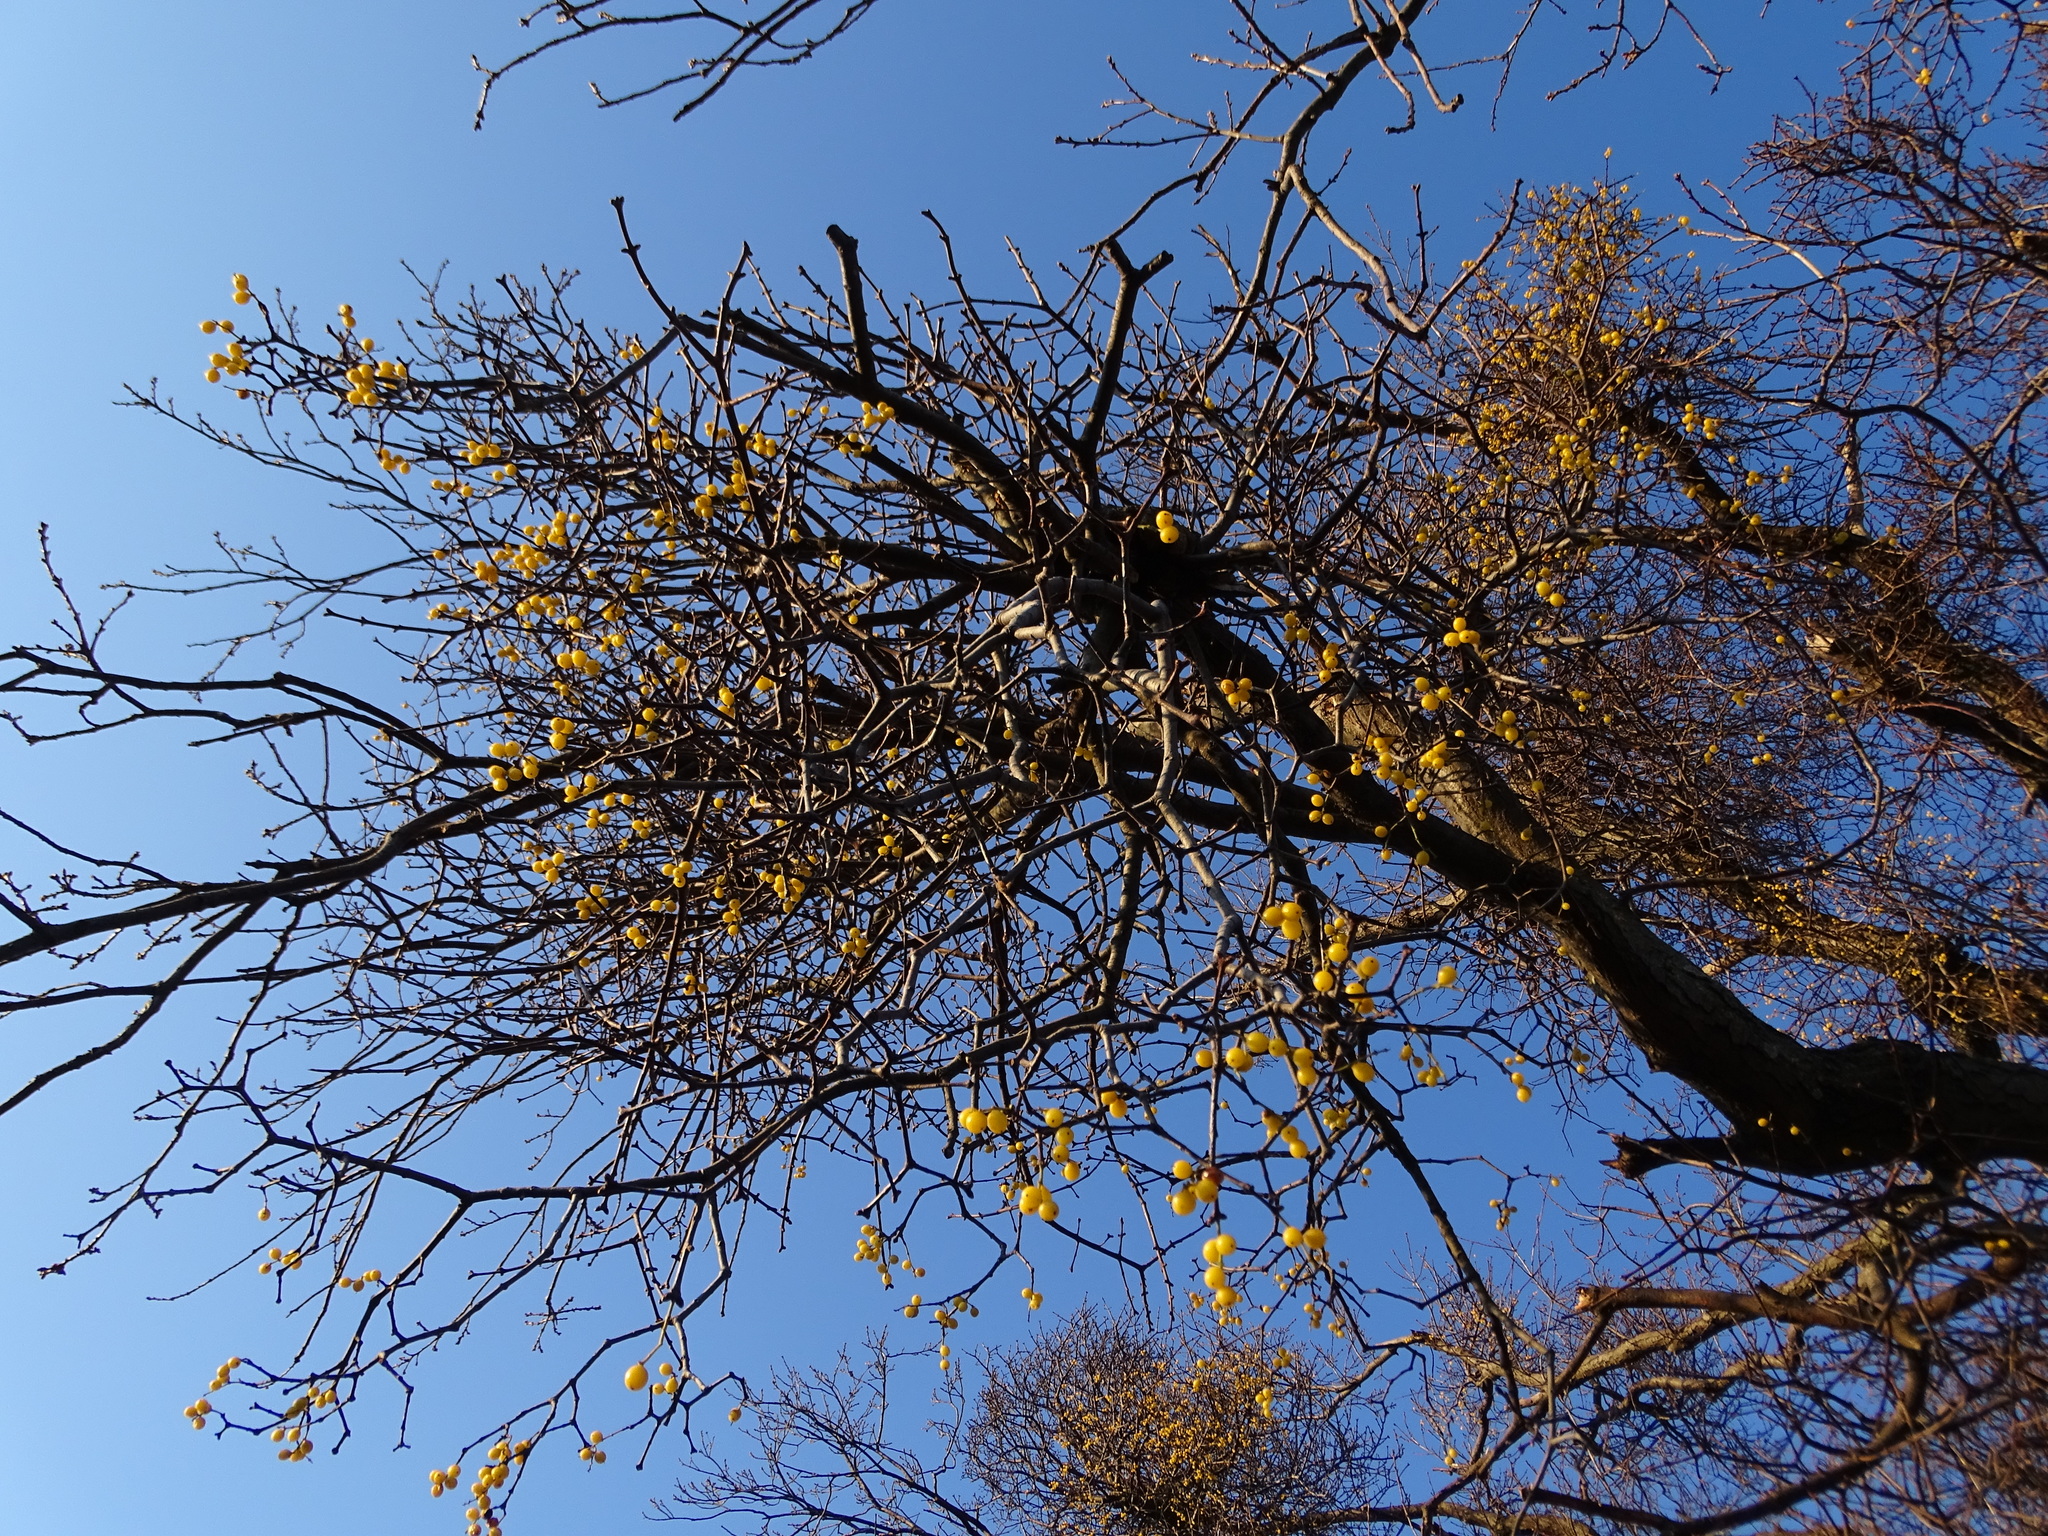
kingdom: Plantae
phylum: Tracheophyta
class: Magnoliopsida
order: Santalales
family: Loranthaceae
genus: Loranthus
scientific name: Loranthus europaeus
